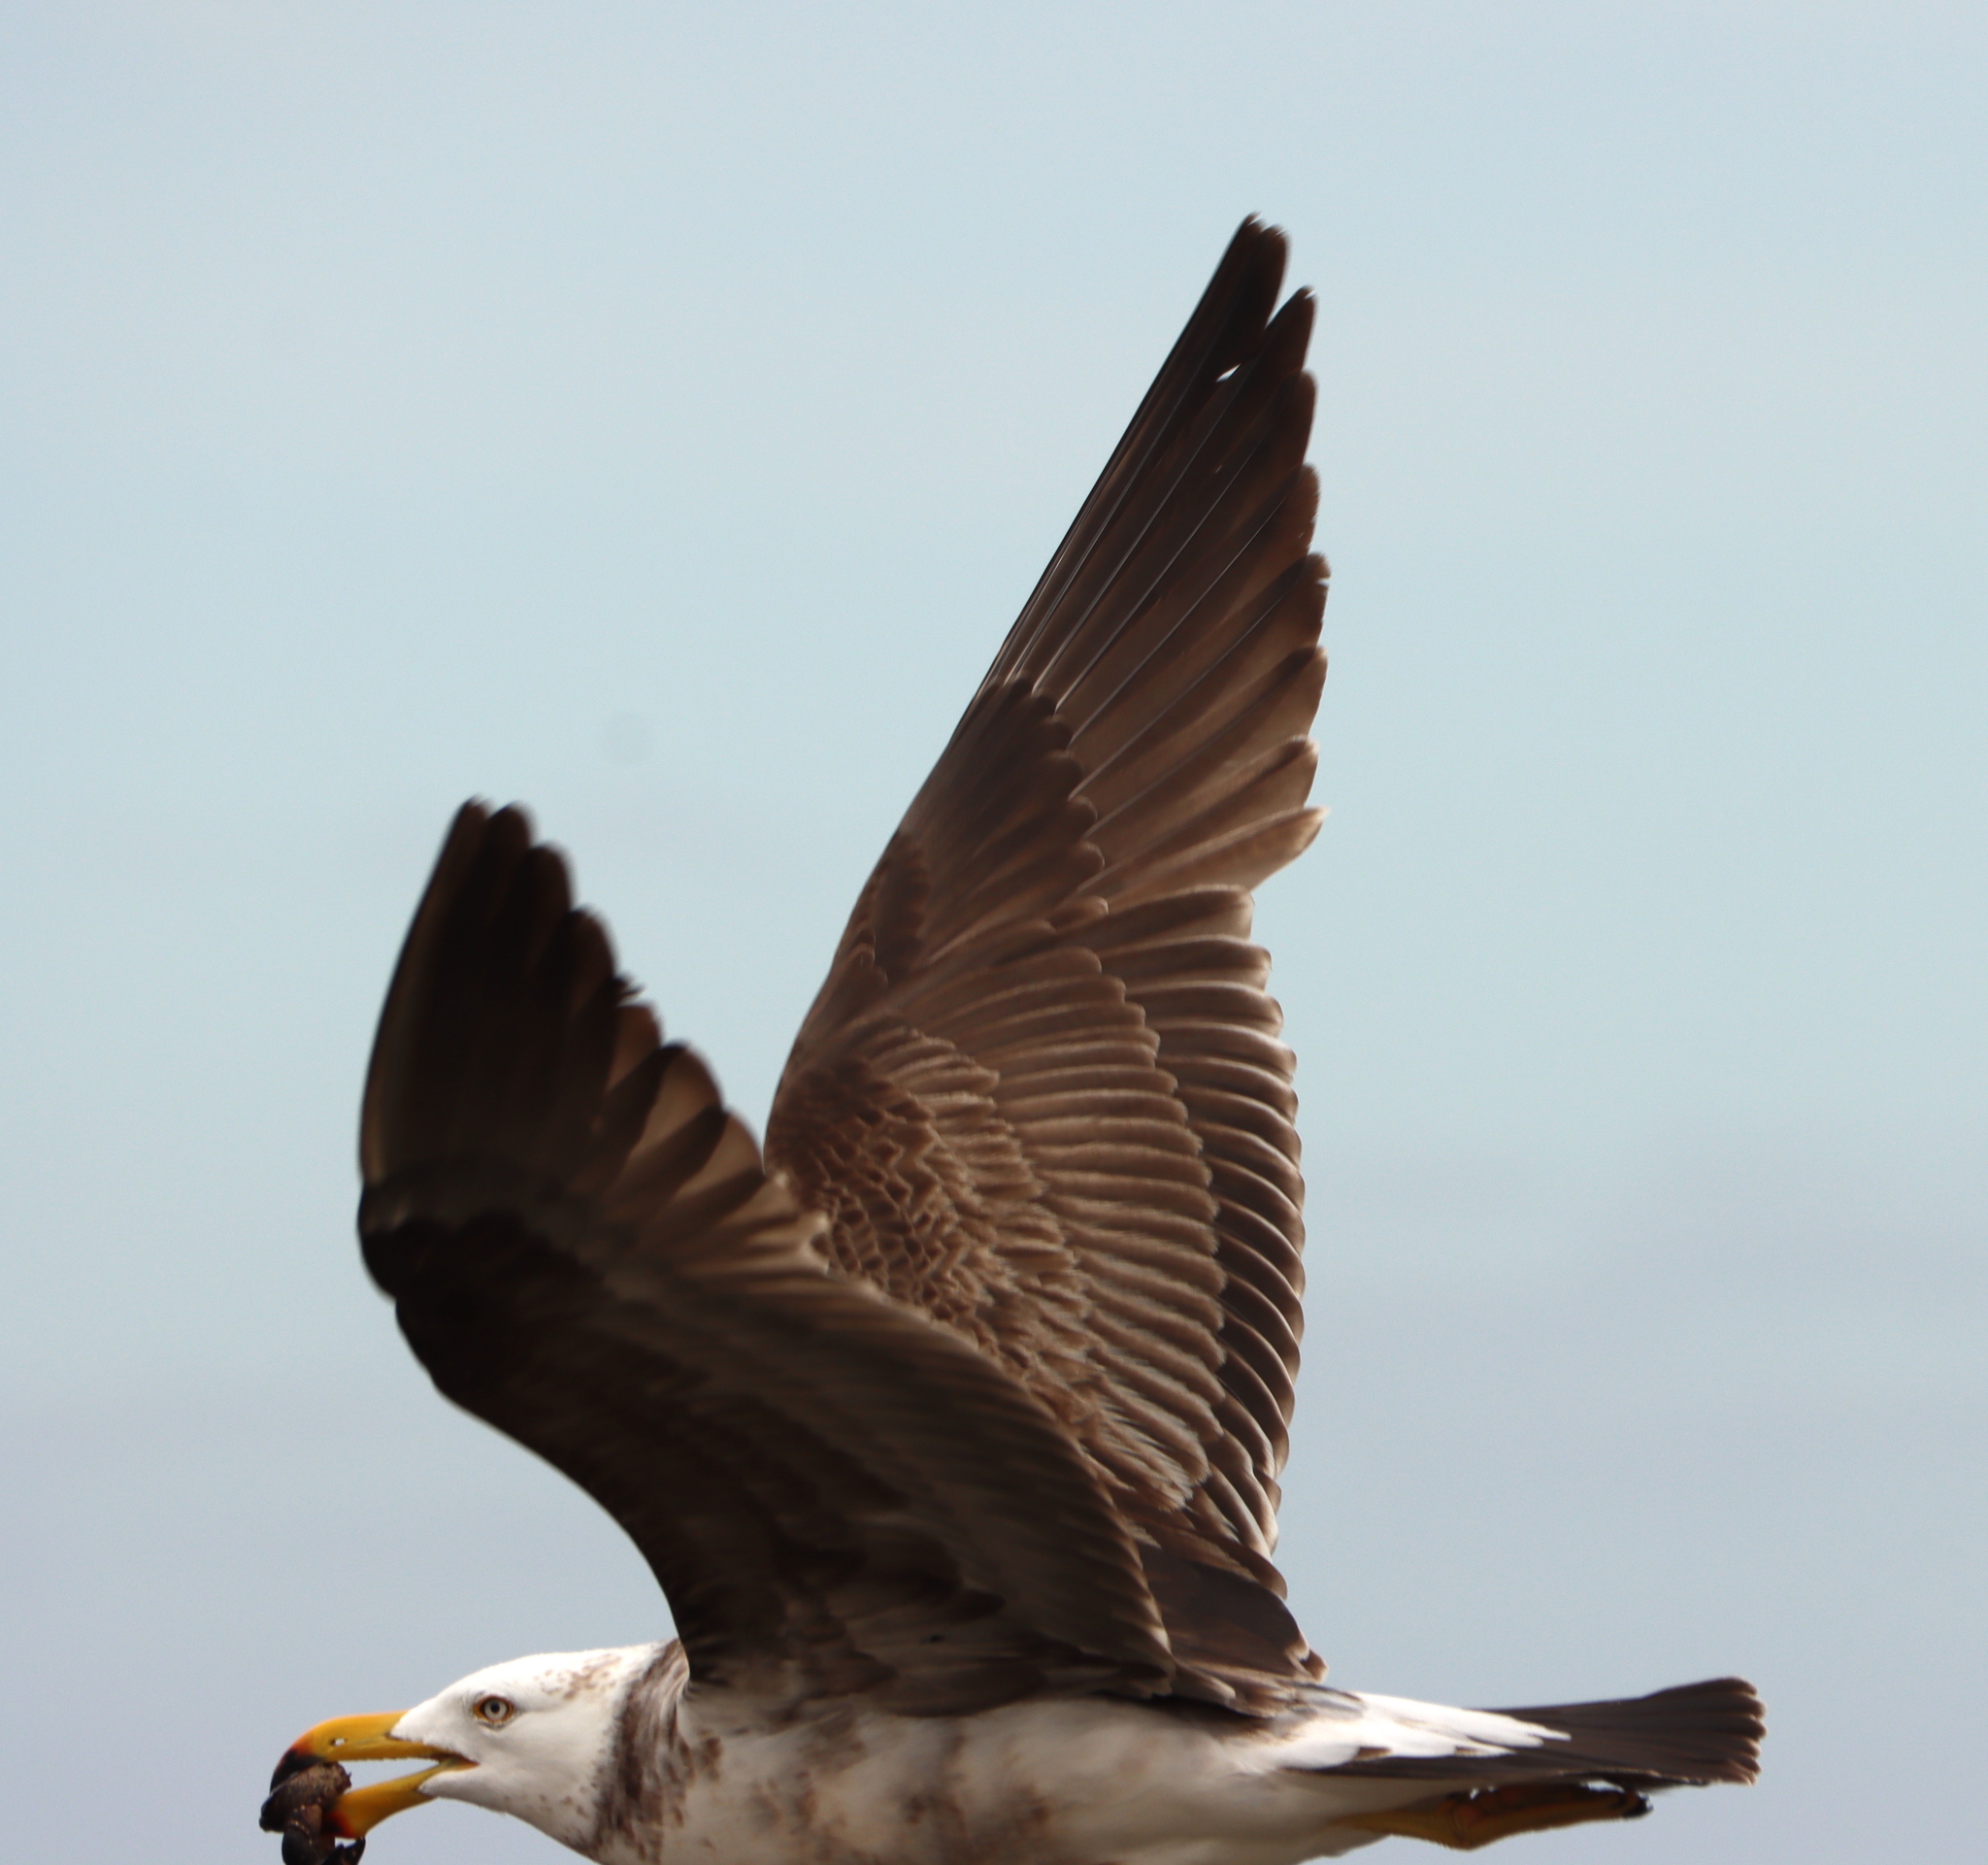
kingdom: Animalia
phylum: Chordata
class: Aves
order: Charadriiformes
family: Laridae
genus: Larus
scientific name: Larus pacificus
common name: Pacific gull
